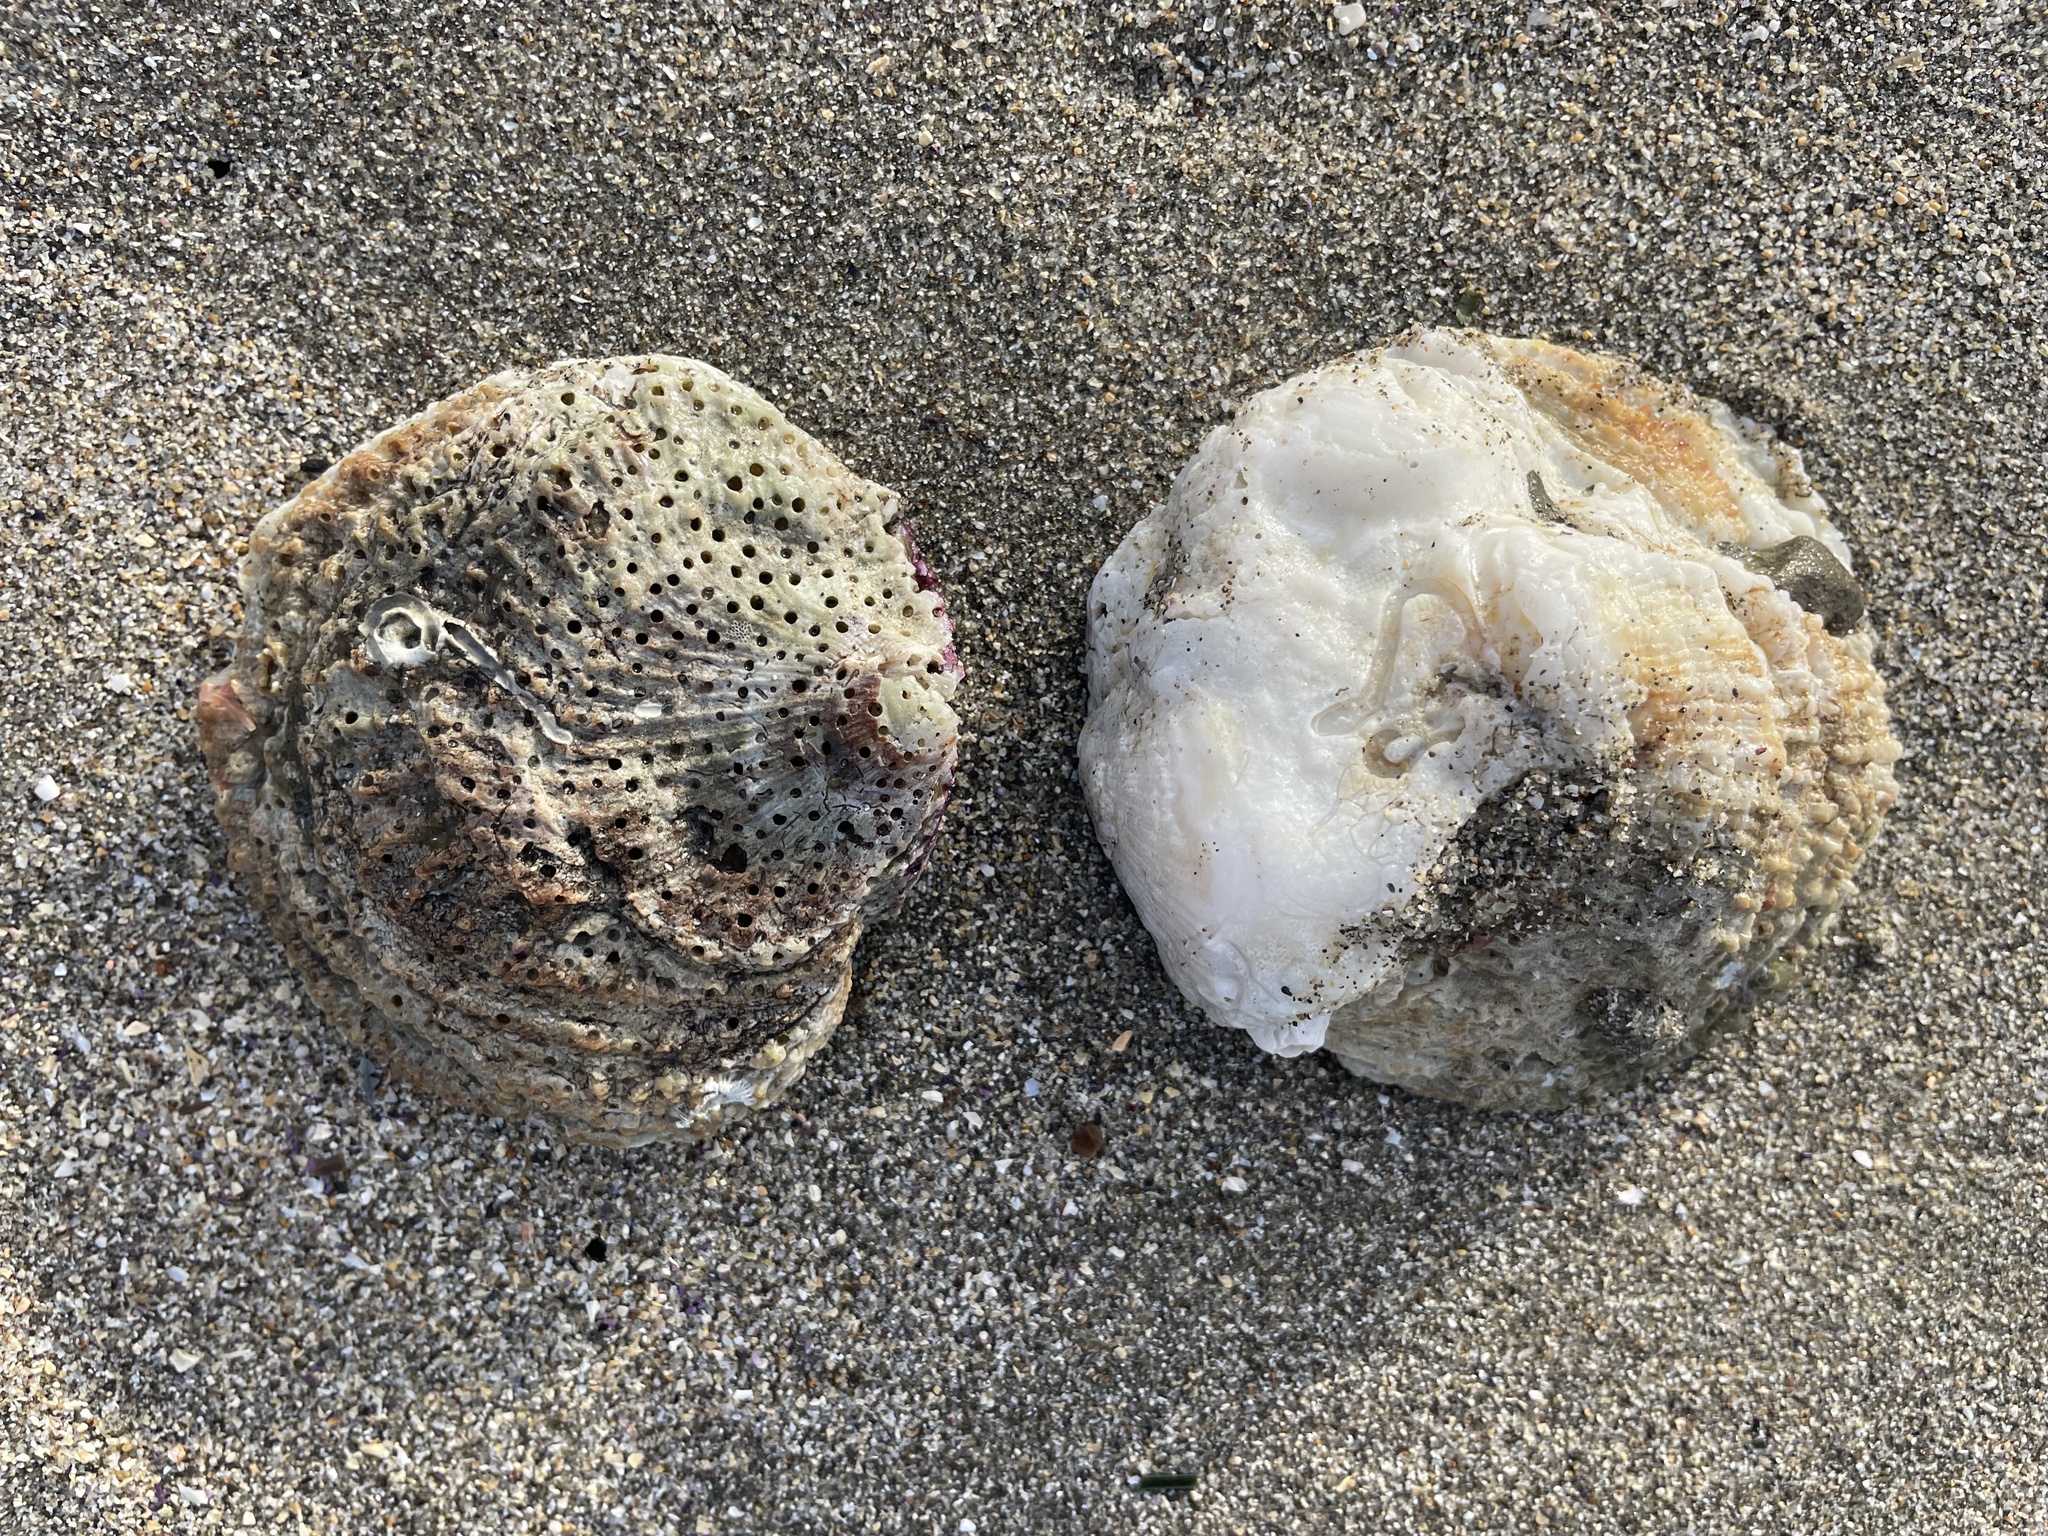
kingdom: Animalia
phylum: Mollusca
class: Bivalvia
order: Pectinida
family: Pectinidae
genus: Crassadoma
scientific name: Crassadoma gigantea
